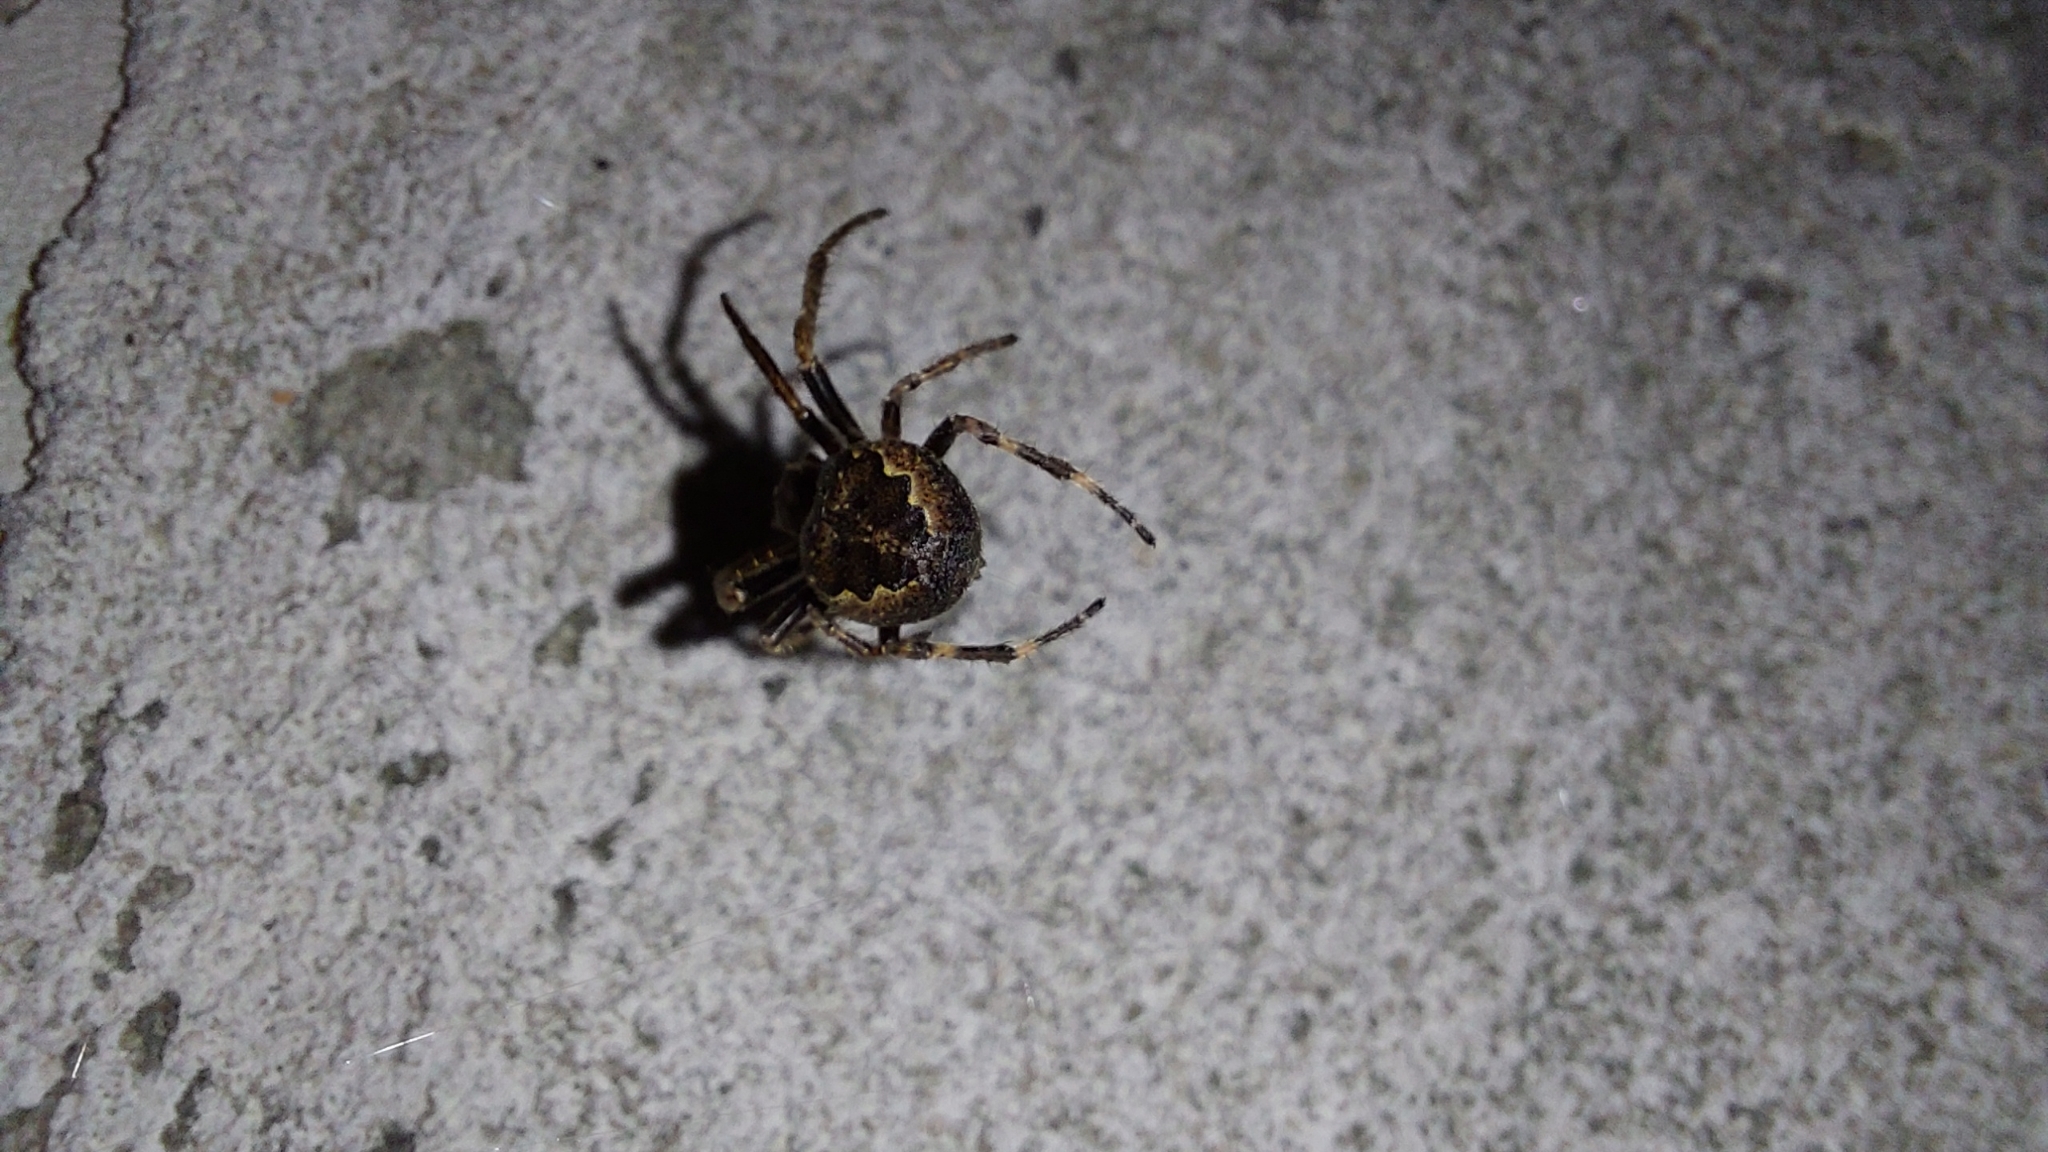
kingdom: Animalia
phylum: Arthropoda
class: Arachnida
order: Araneae
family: Araneidae
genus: Nuctenea
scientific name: Nuctenea umbratica
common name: Toad spider
